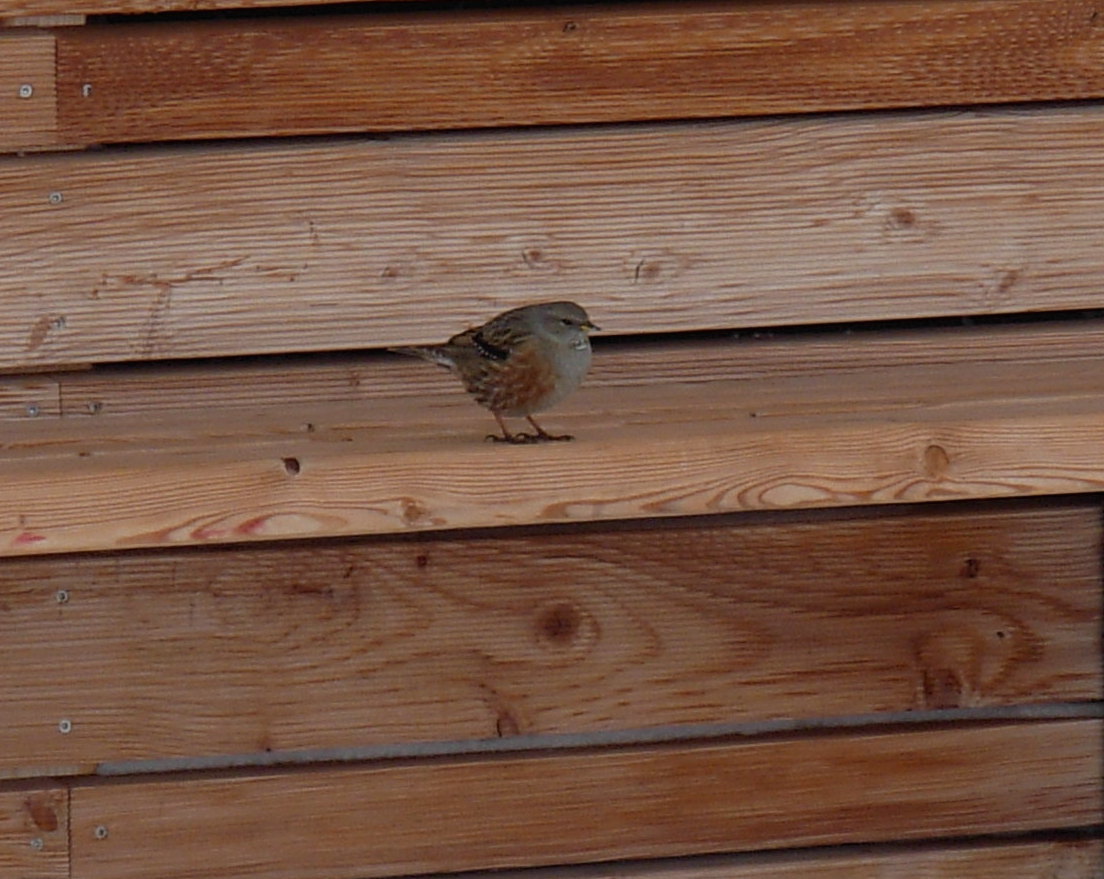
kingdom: Animalia
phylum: Chordata
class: Aves
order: Passeriformes
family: Prunellidae
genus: Prunella
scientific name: Prunella collaris
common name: Alpine accentor
